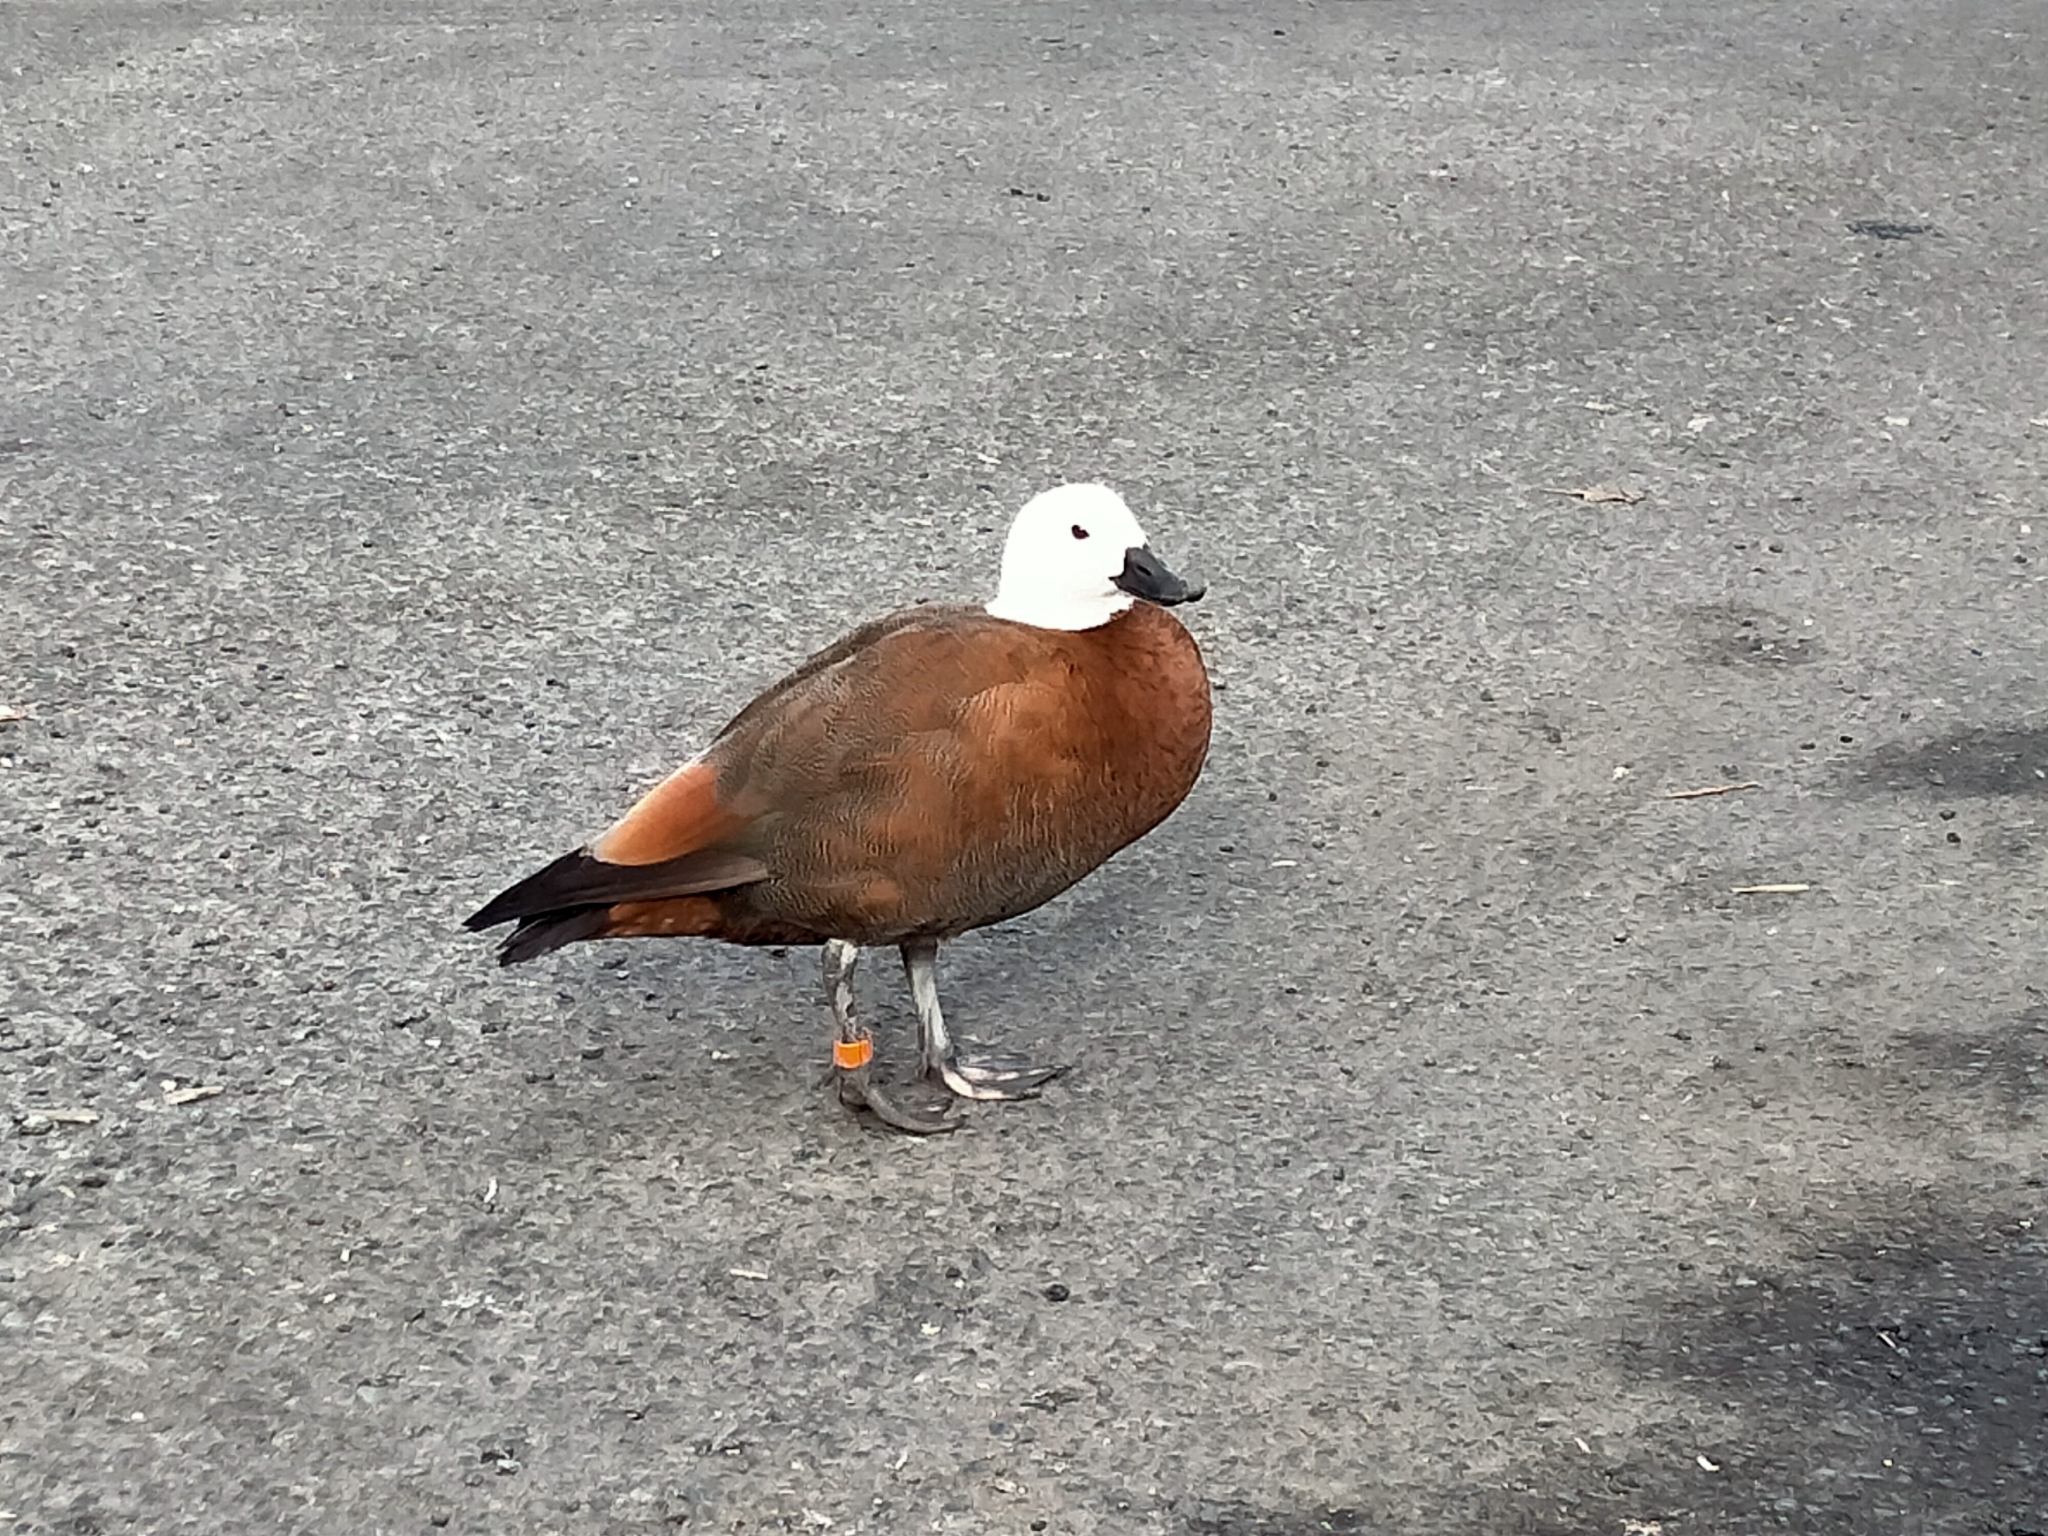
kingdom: Animalia
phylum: Chordata
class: Aves
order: Anseriformes
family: Anatidae
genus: Tadorna
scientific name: Tadorna variegata
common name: Paradise shelduck
